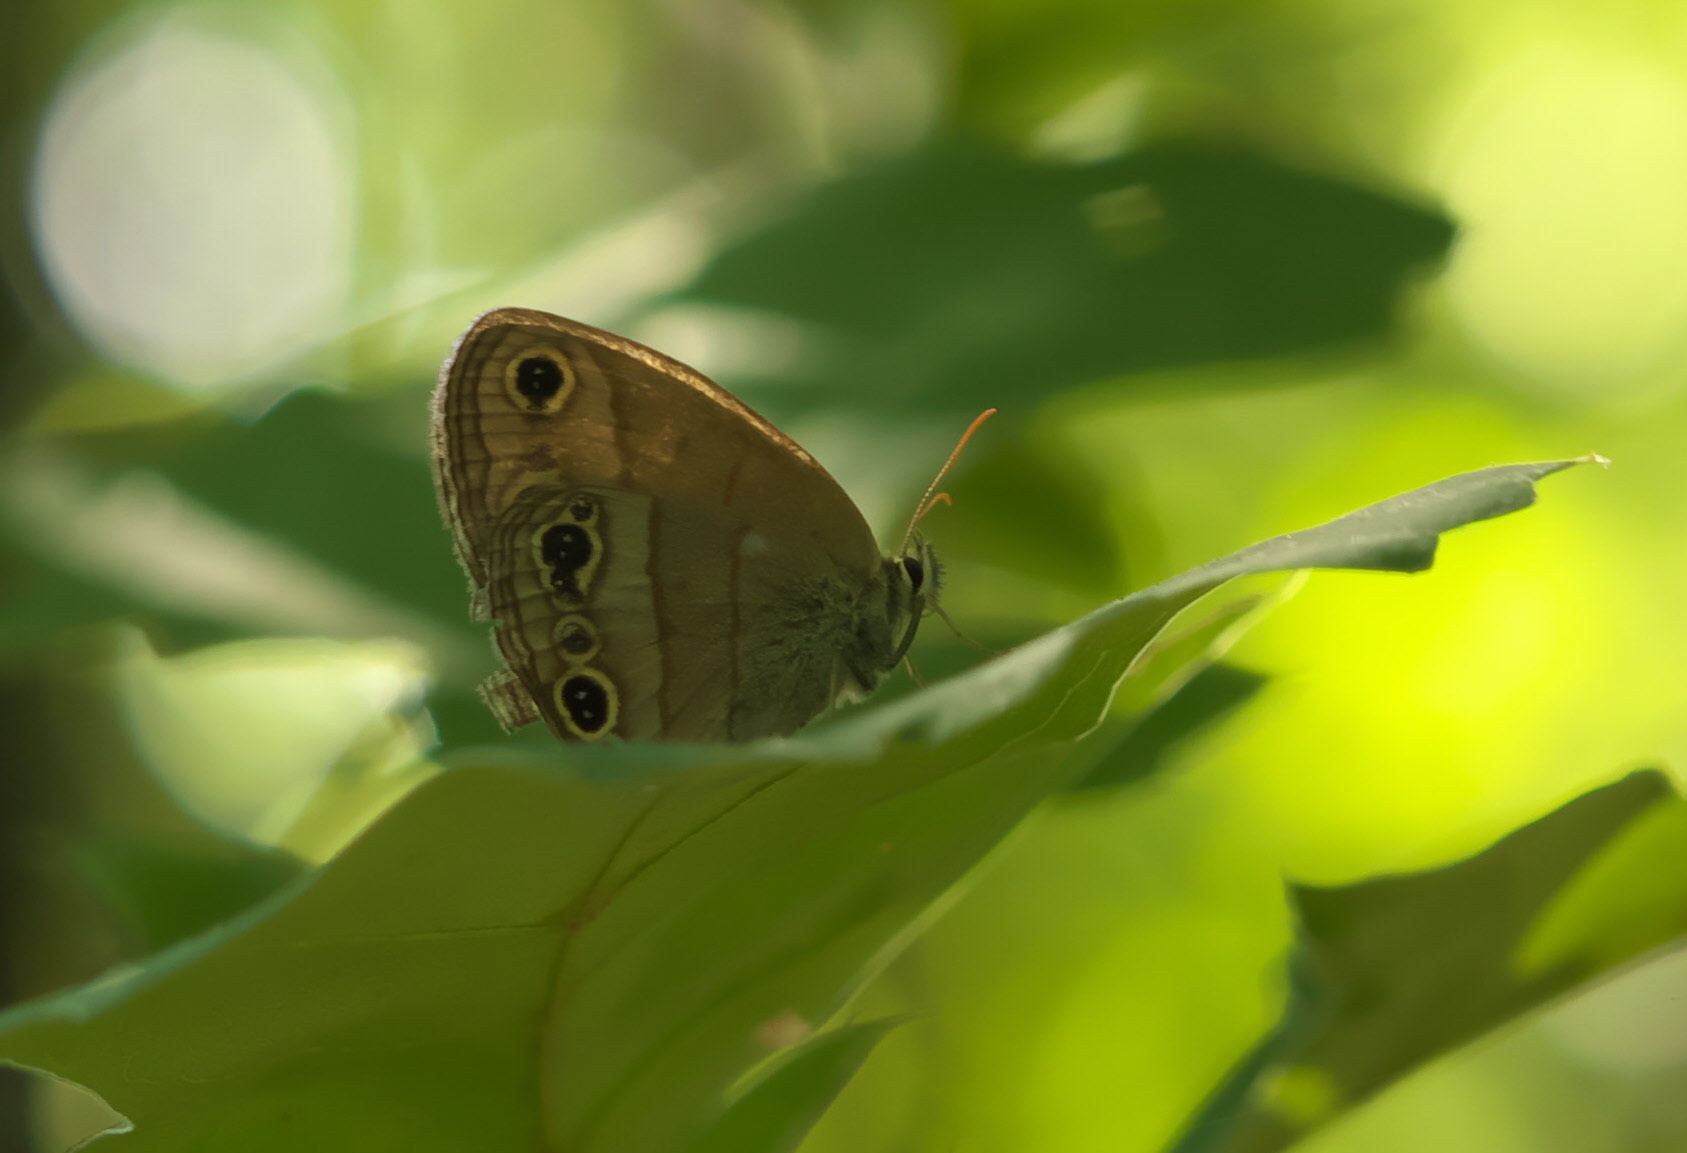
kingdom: Animalia
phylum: Arthropoda
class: Insecta
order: Lepidoptera
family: Nymphalidae
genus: Euptychia
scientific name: Euptychia cymela
